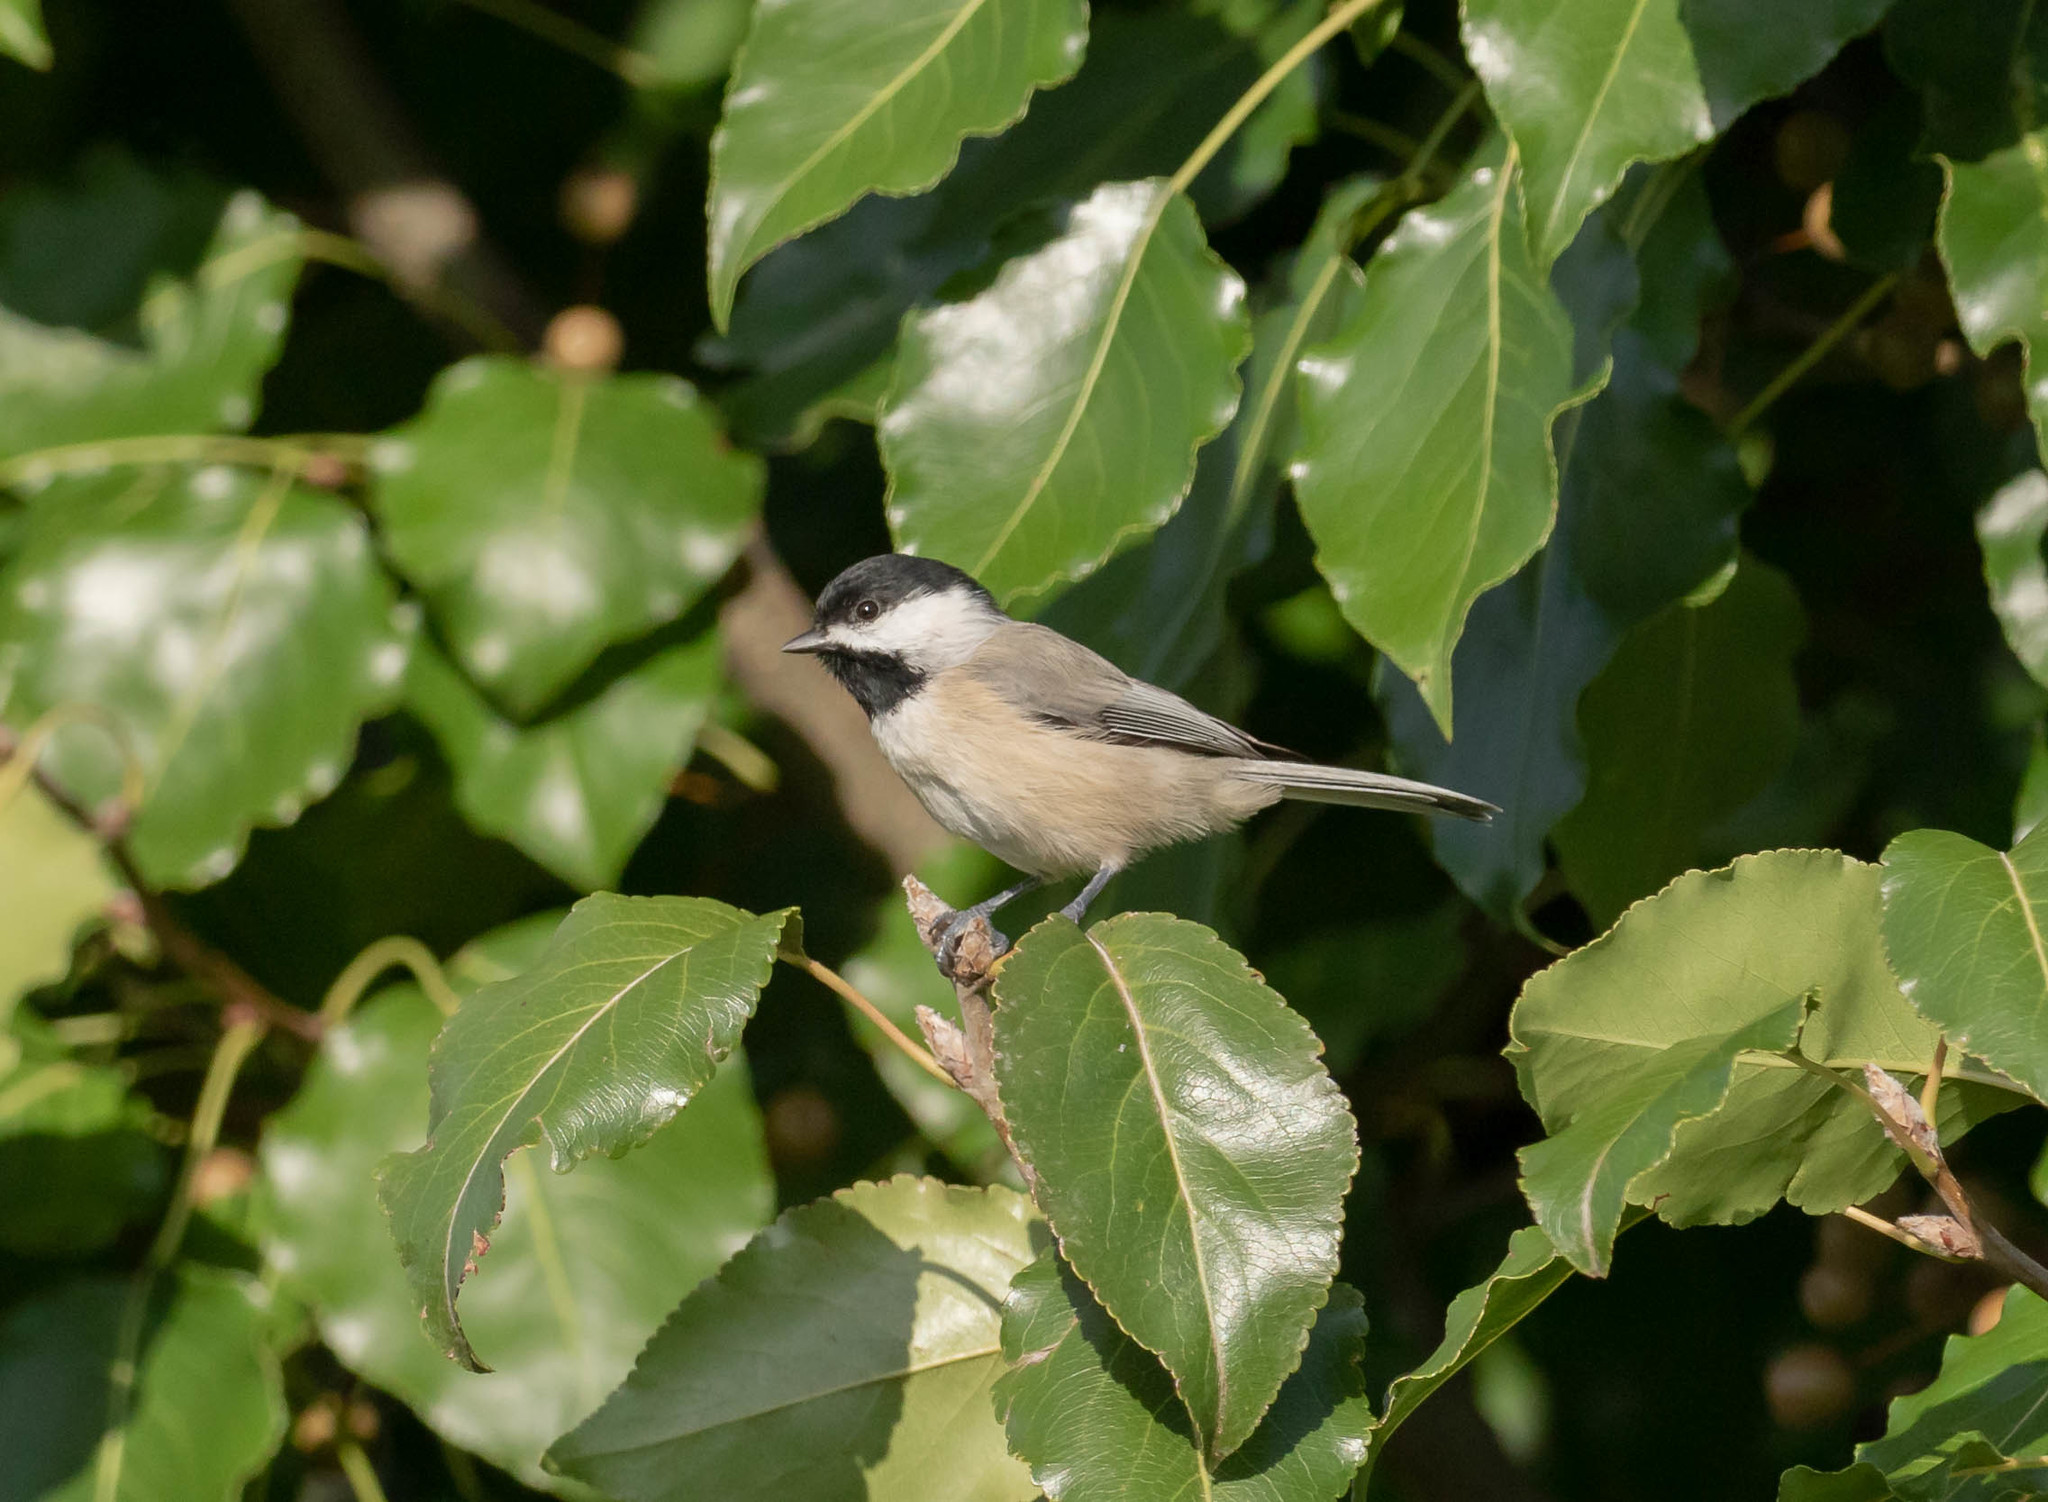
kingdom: Animalia
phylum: Chordata
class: Aves
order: Passeriformes
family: Paridae
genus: Poecile
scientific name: Poecile carolinensis
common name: Carolina chickadee
